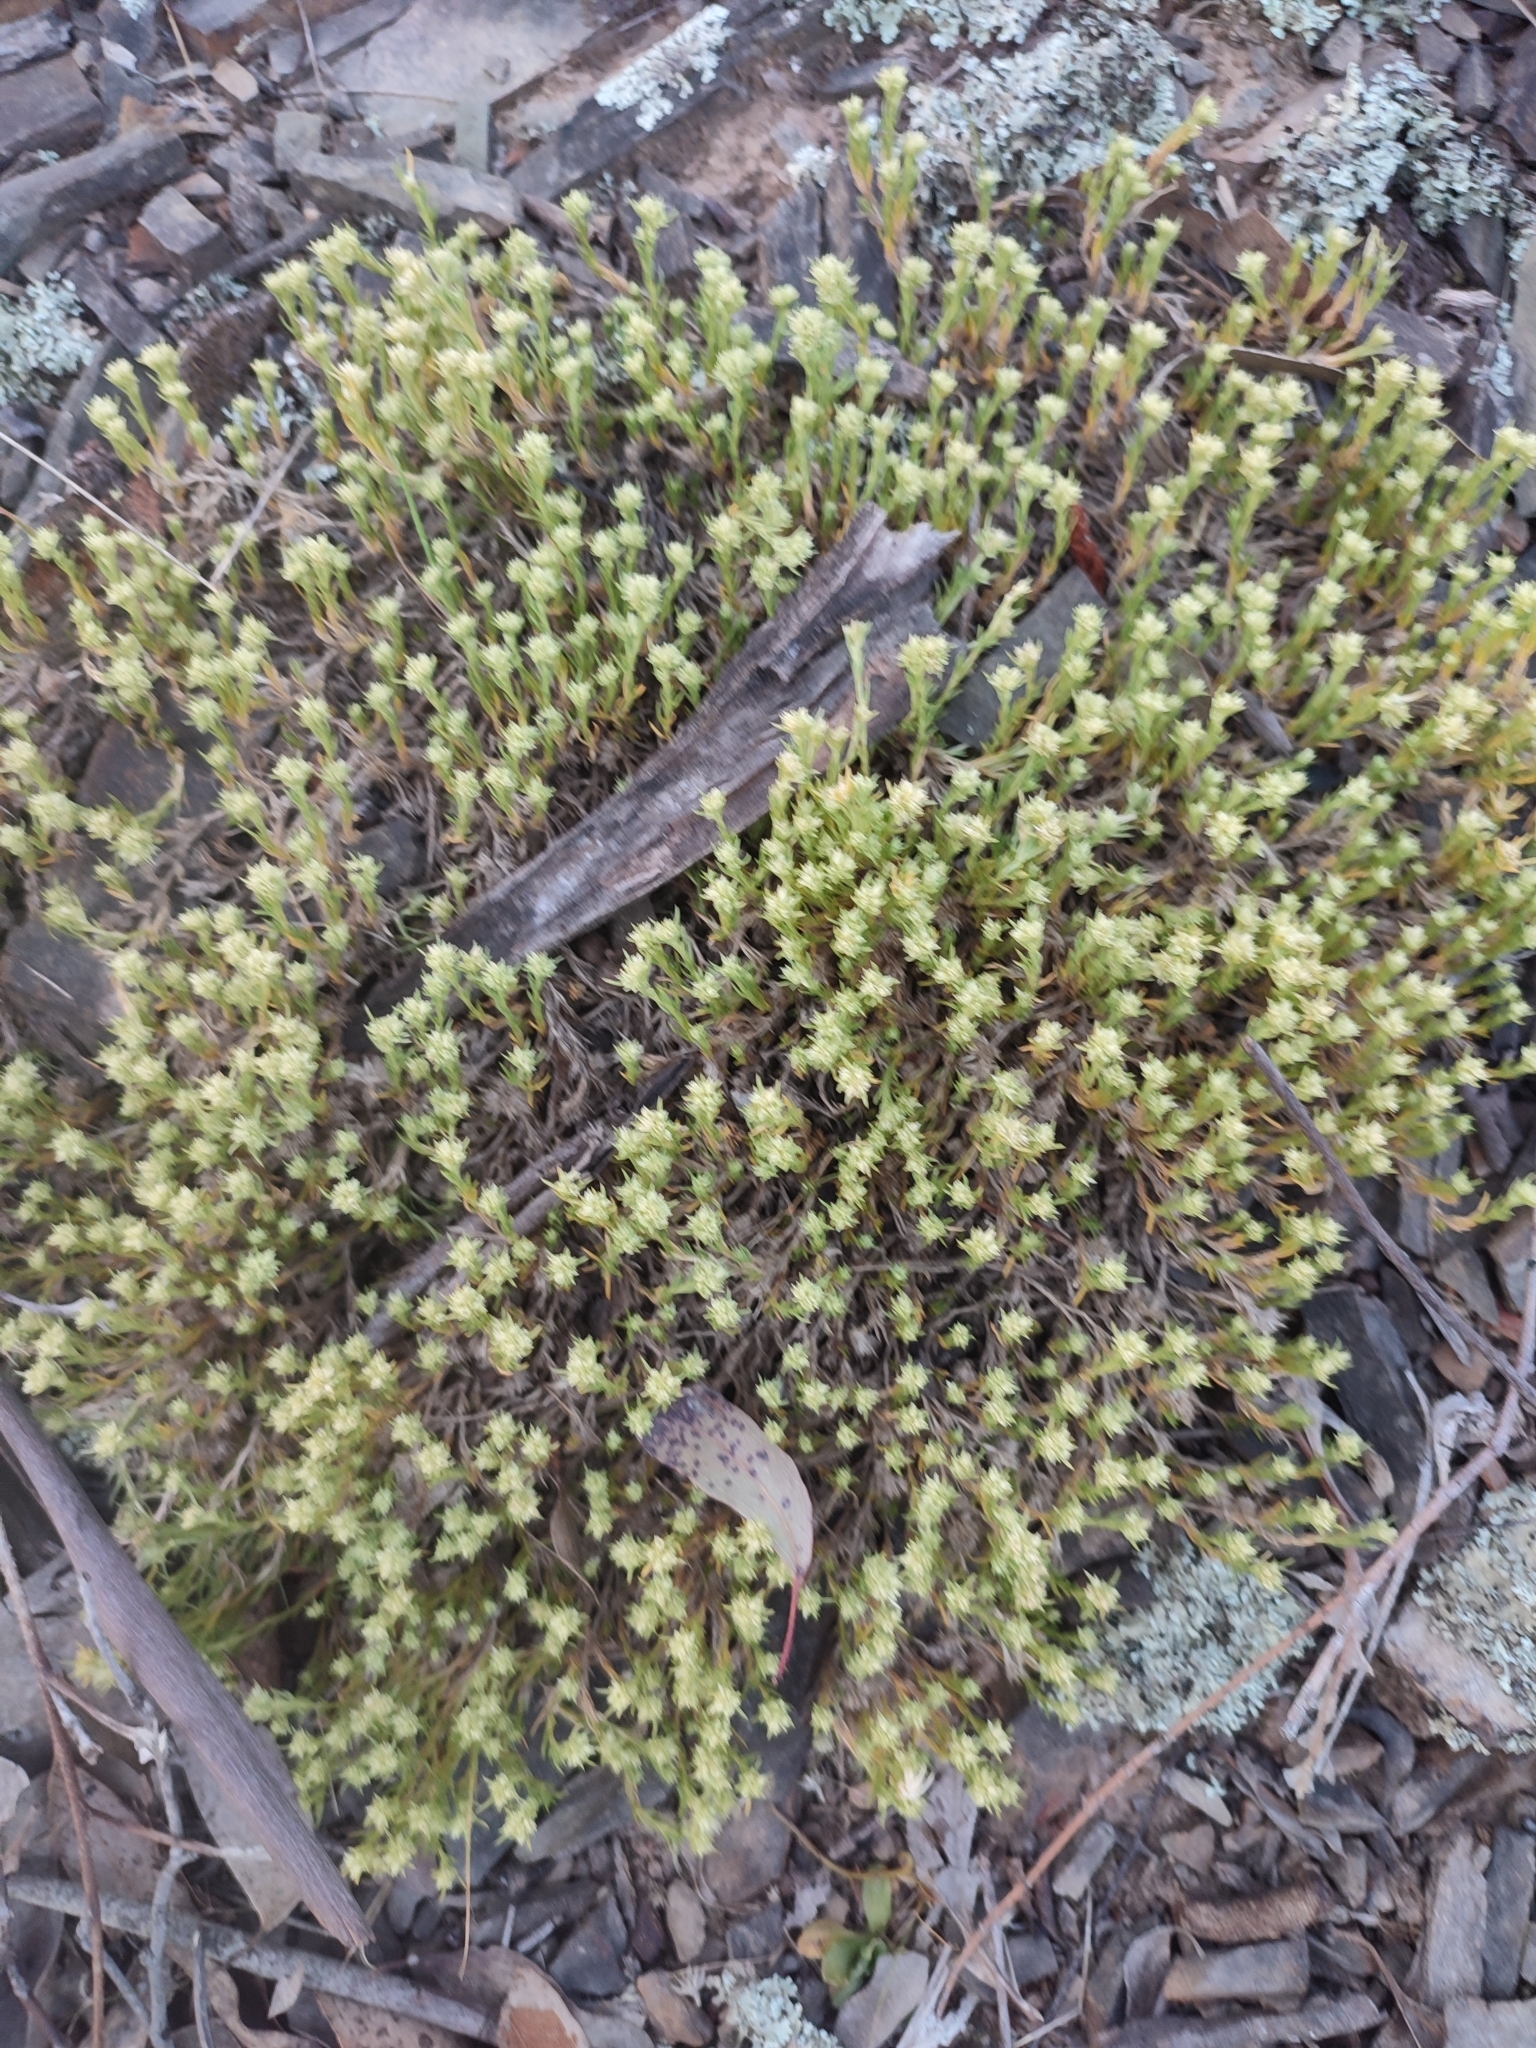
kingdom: Plantae
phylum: Tracheophyta
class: Magnoliopsida
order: Caryophyllales
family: Caryophyllaceae
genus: Scleranthus
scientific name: Scleranthus diander
